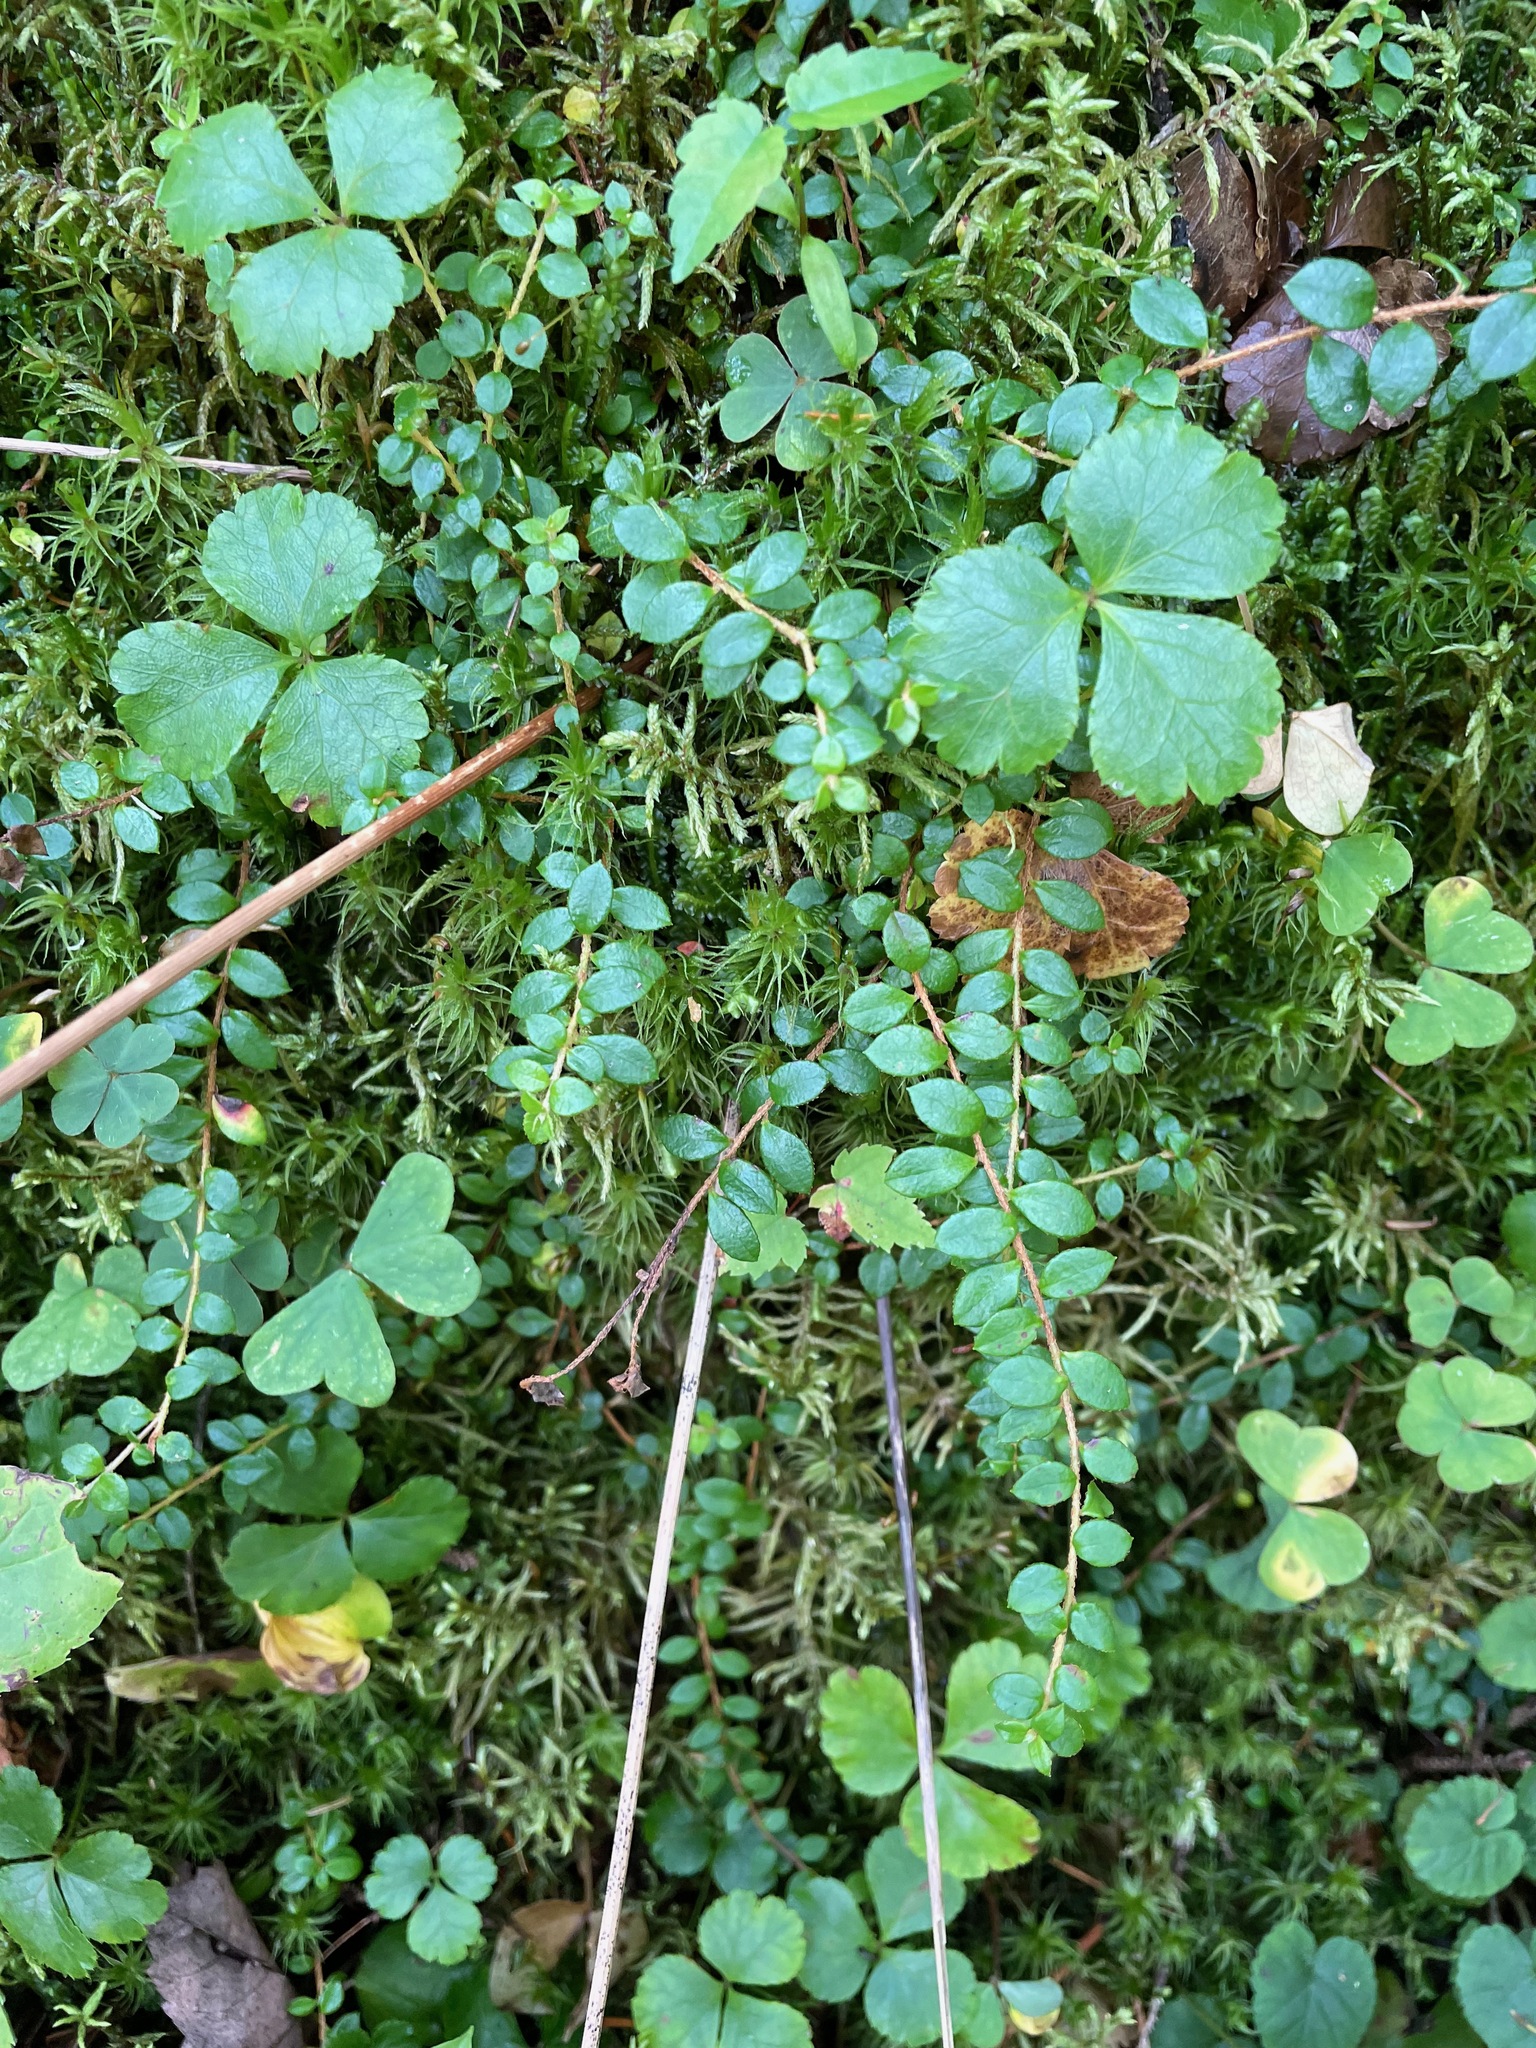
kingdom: Plantae
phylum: Tracheophyta
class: Magnoliopsida
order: Ericales
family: Ericaceae
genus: Gaultheria
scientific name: Gaultheria hispidula
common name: Cancer wintergreen
